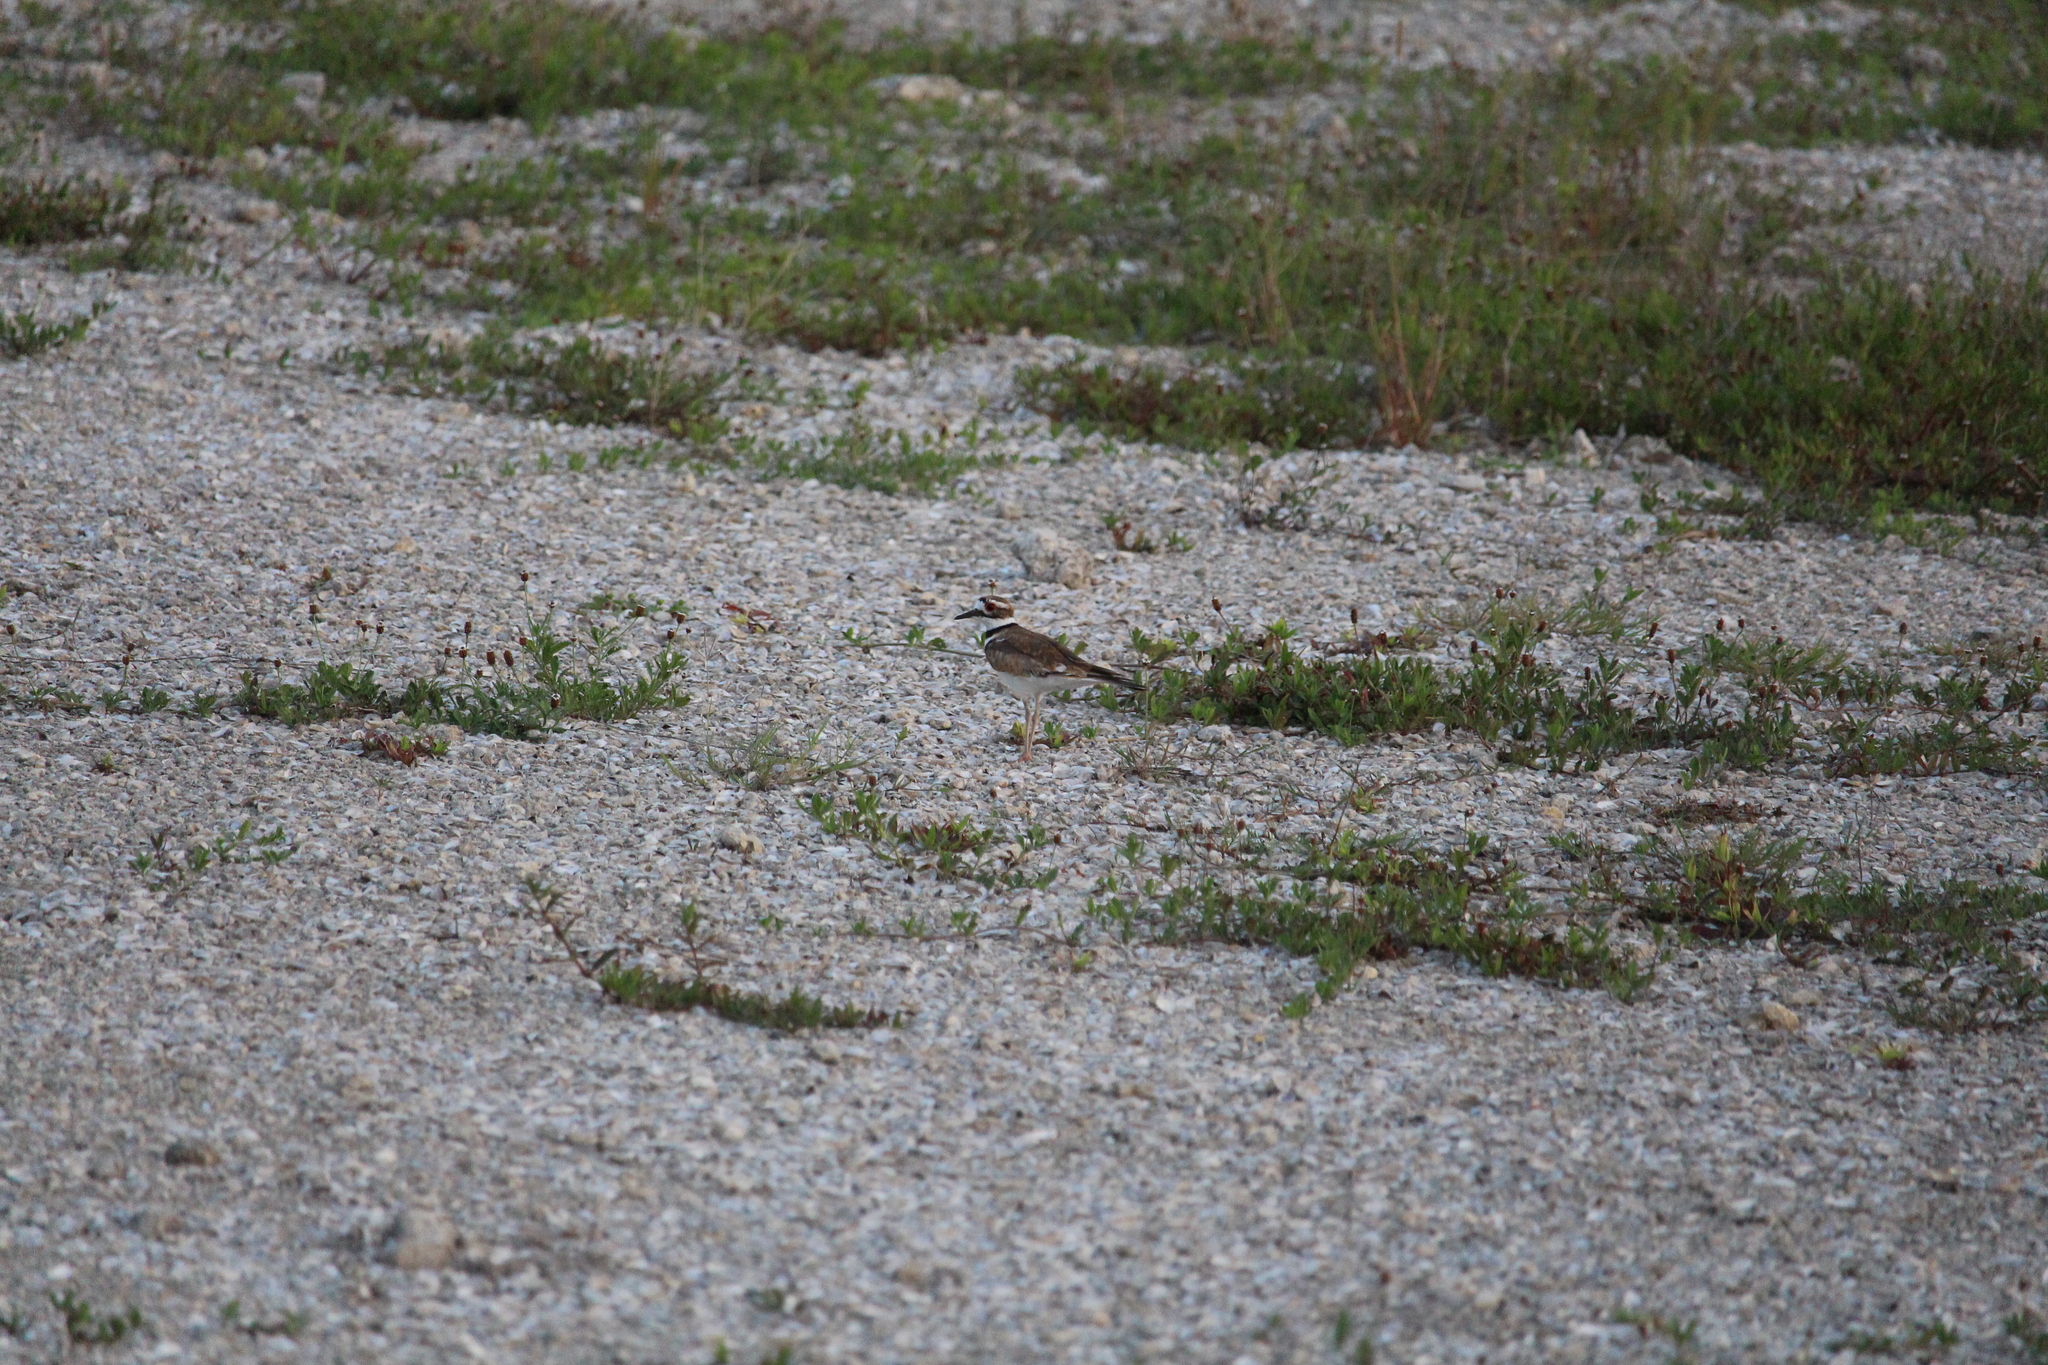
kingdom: Animalia
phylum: Chordata
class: Aves
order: Charadriiformes
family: Charadriidae
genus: Charadrius
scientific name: Charadrius vociferus
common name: Killdeer
